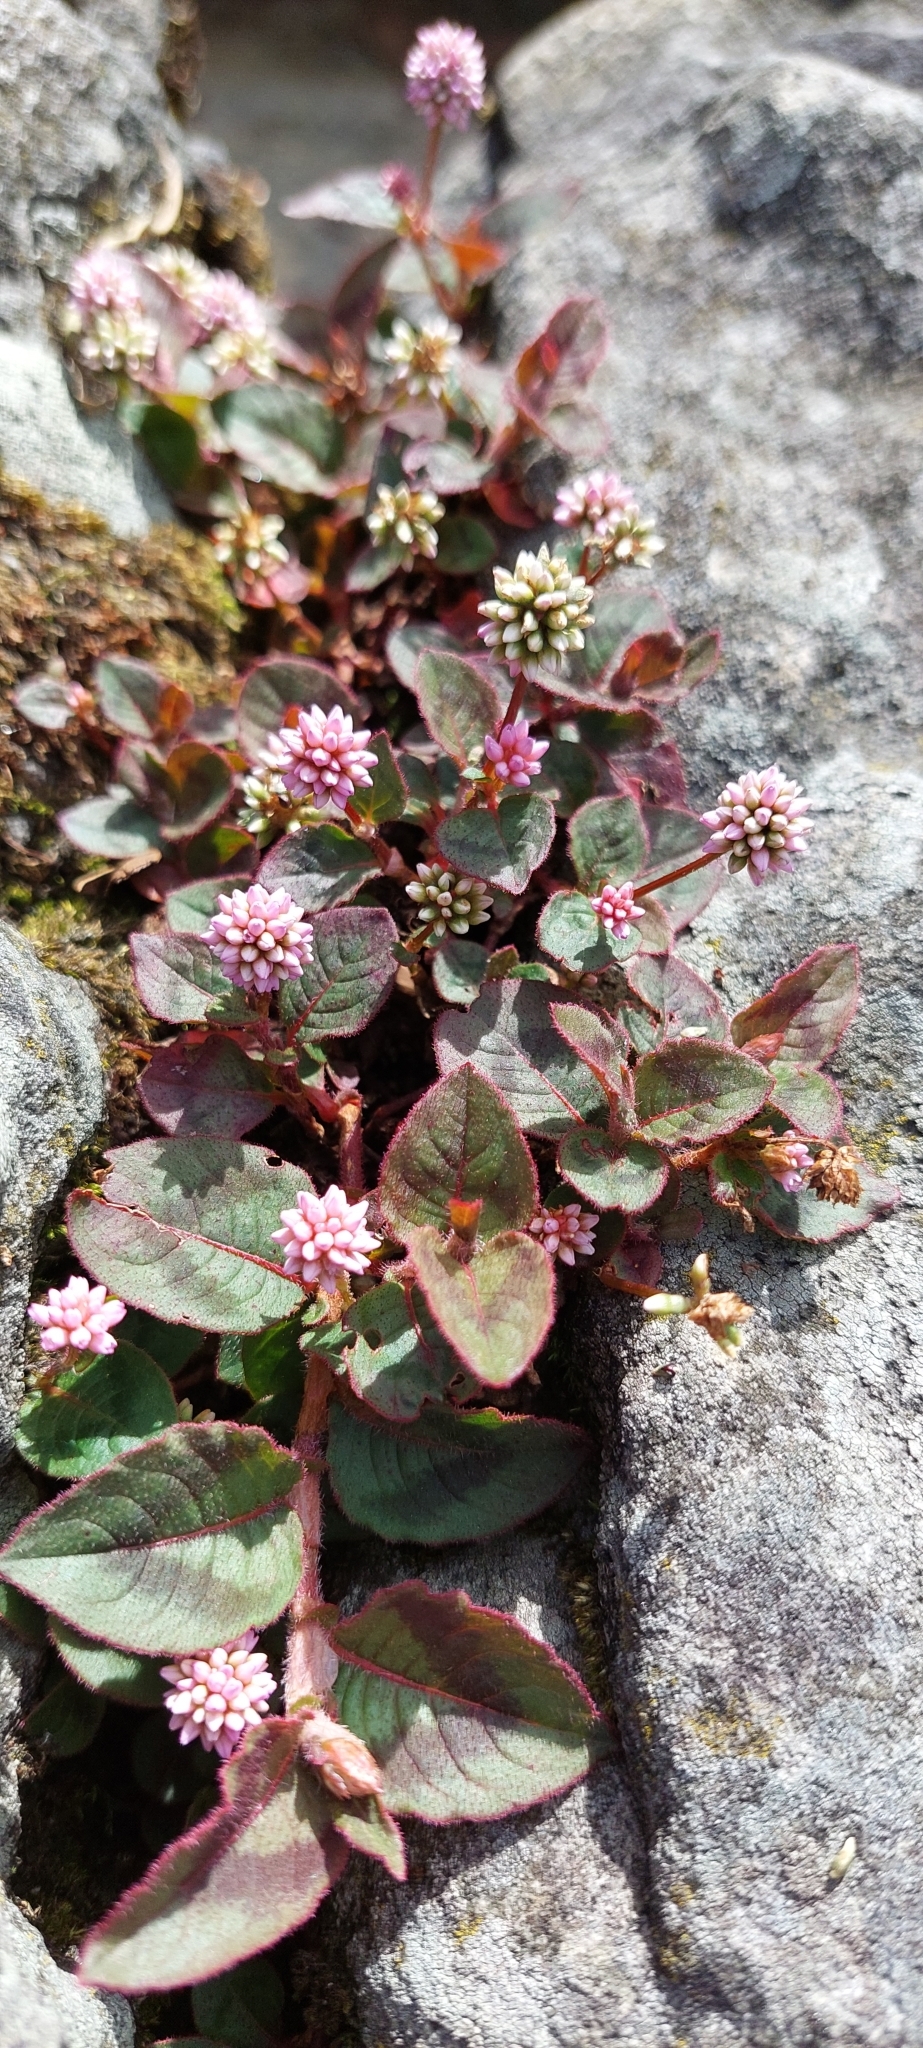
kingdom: Plantae
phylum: Tracheophyta
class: Magnoliopsida
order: Caryophyllales
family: Polygonaceae
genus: Persicaria
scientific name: Persicaria capitata
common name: Pinkhead smartweed
